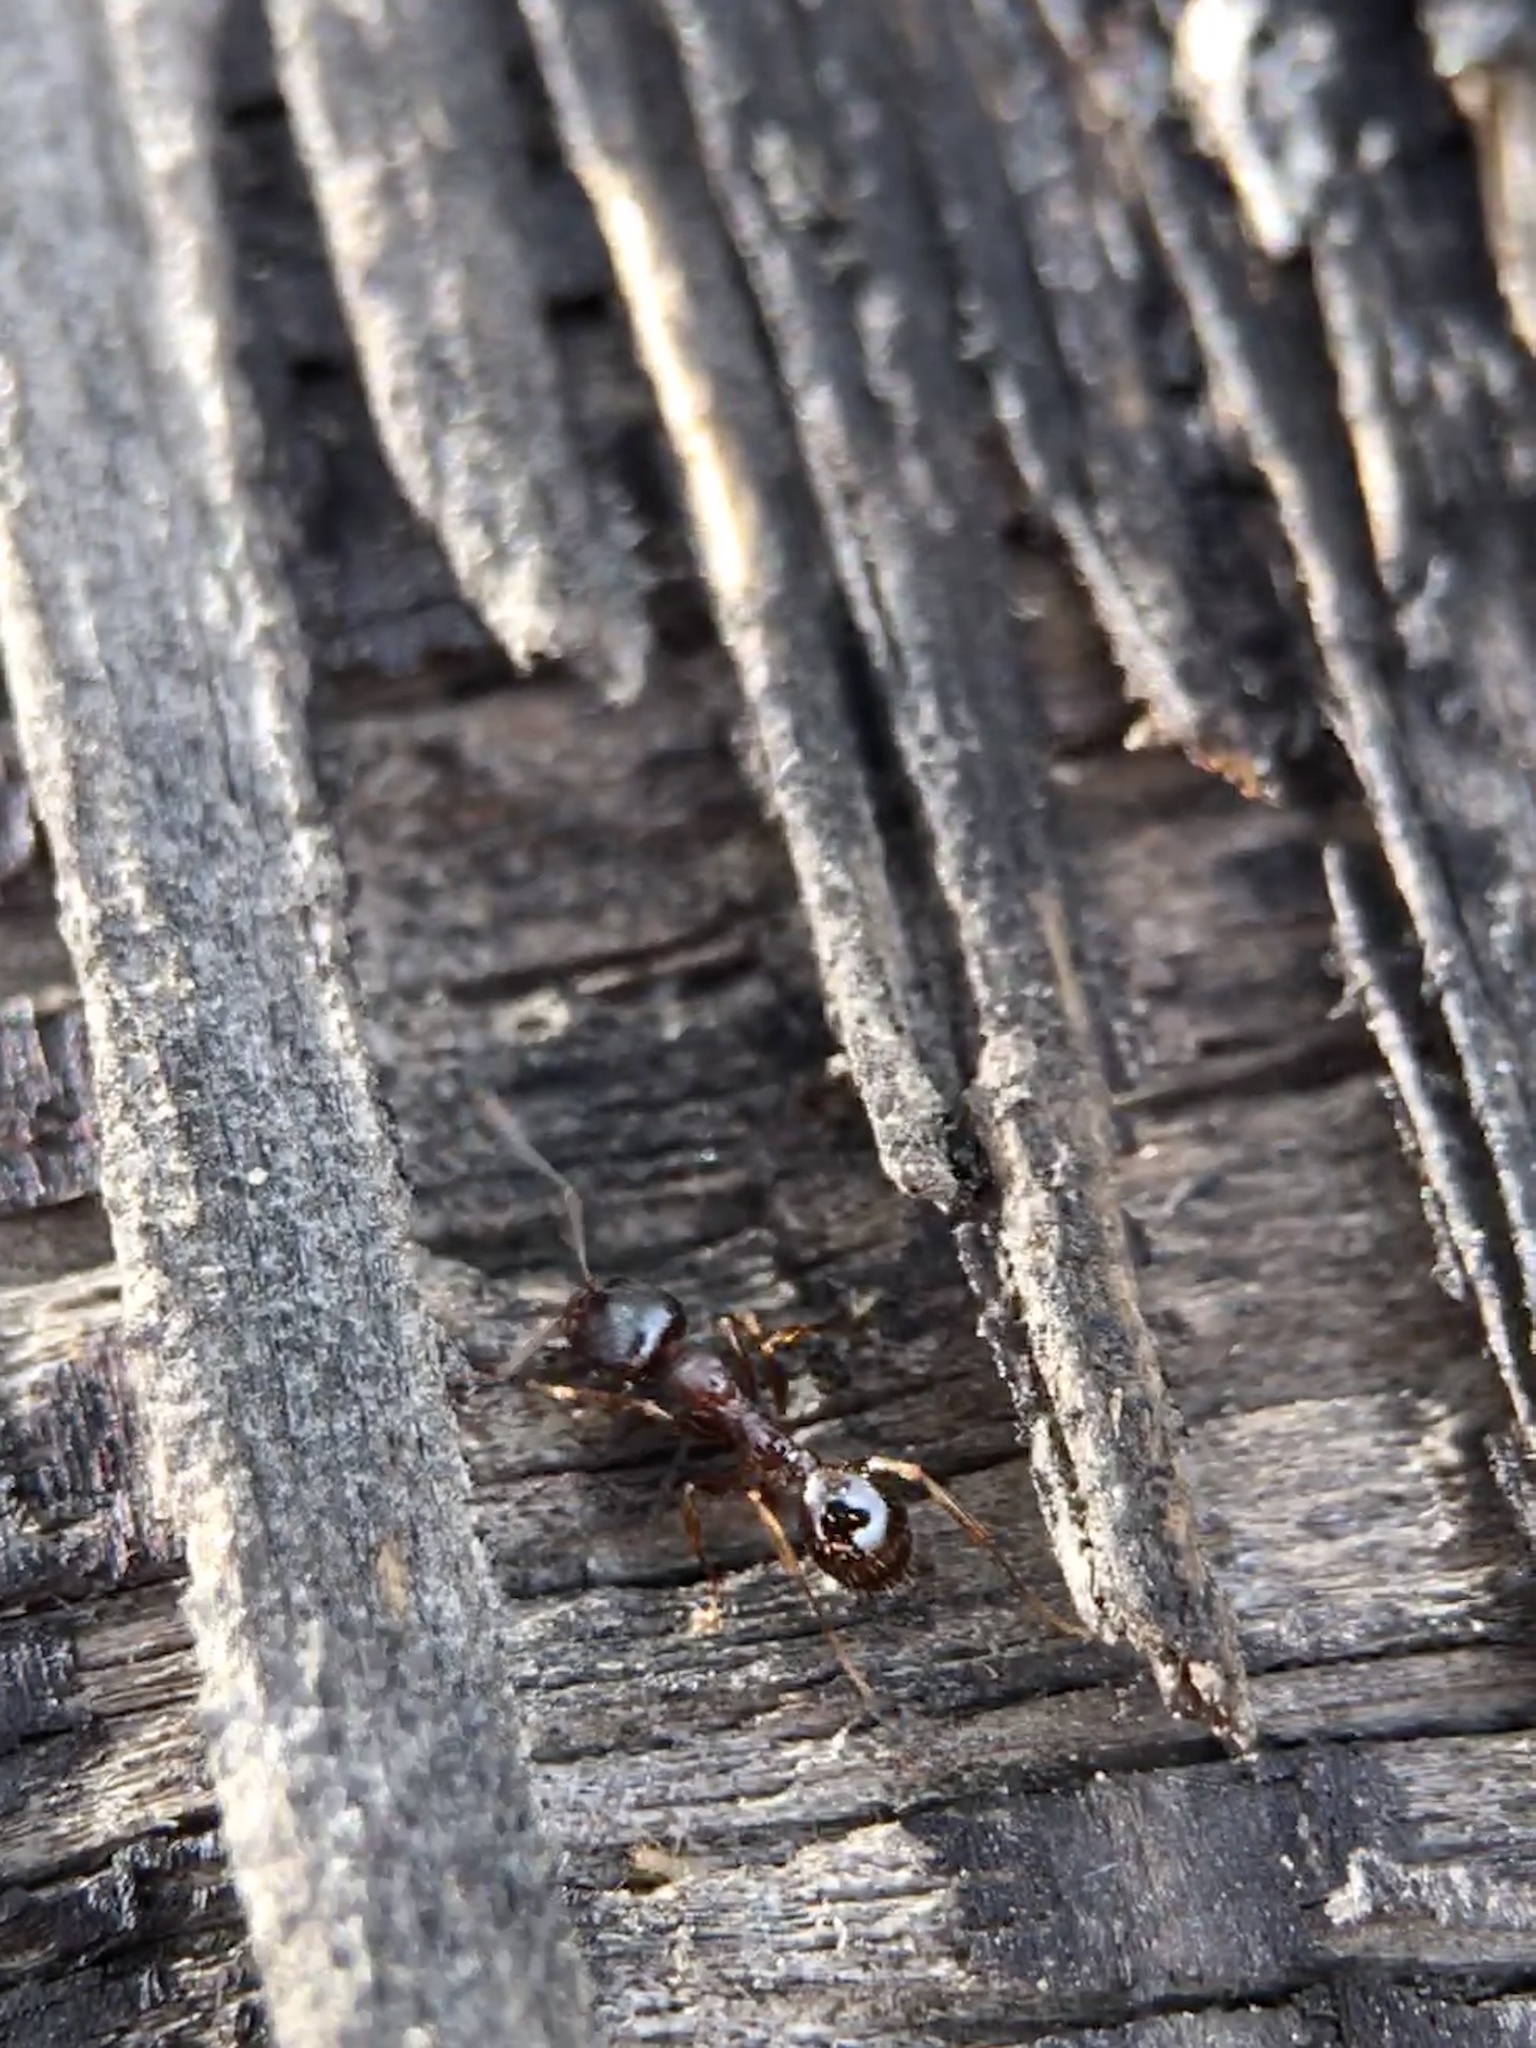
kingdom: Animalia
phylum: Arthropoda
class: Insecta
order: Hymenoptera
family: Formicidae
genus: Aphaenogaster
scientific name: Aphaenogaster occidentalis
